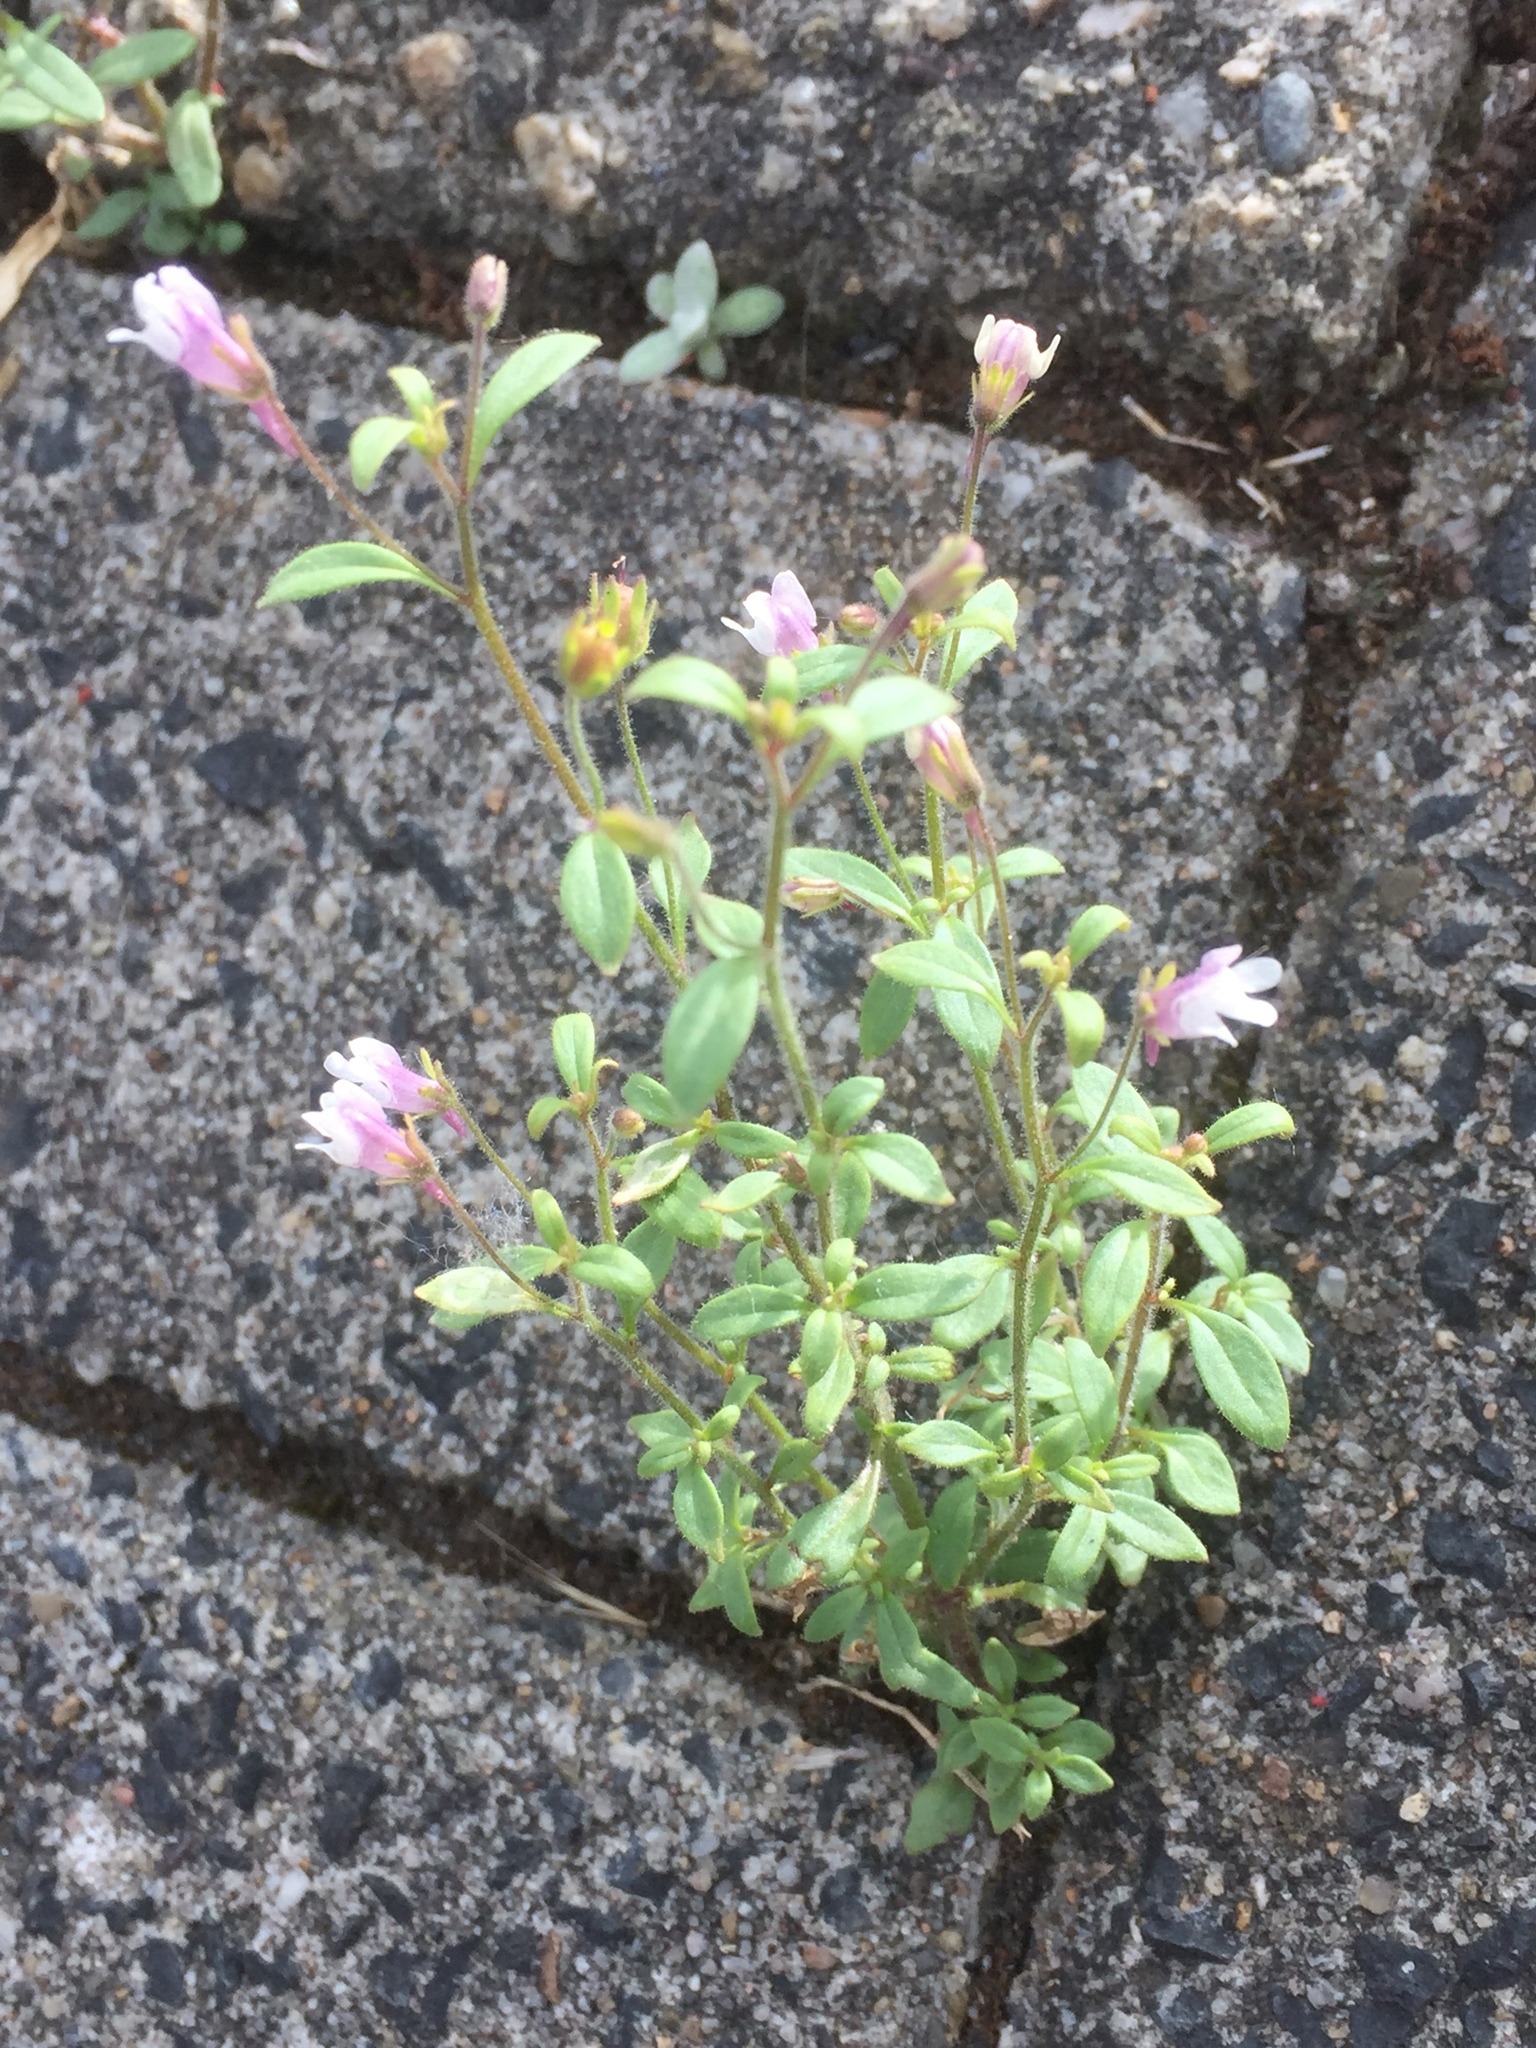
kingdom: Plantae
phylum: Tracheophyta
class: Magnoliopsida
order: Lamiales
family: Plantaginaceae
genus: Chaenorhinum
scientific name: Chaenorhinum minus
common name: Dwarf snapdragon
